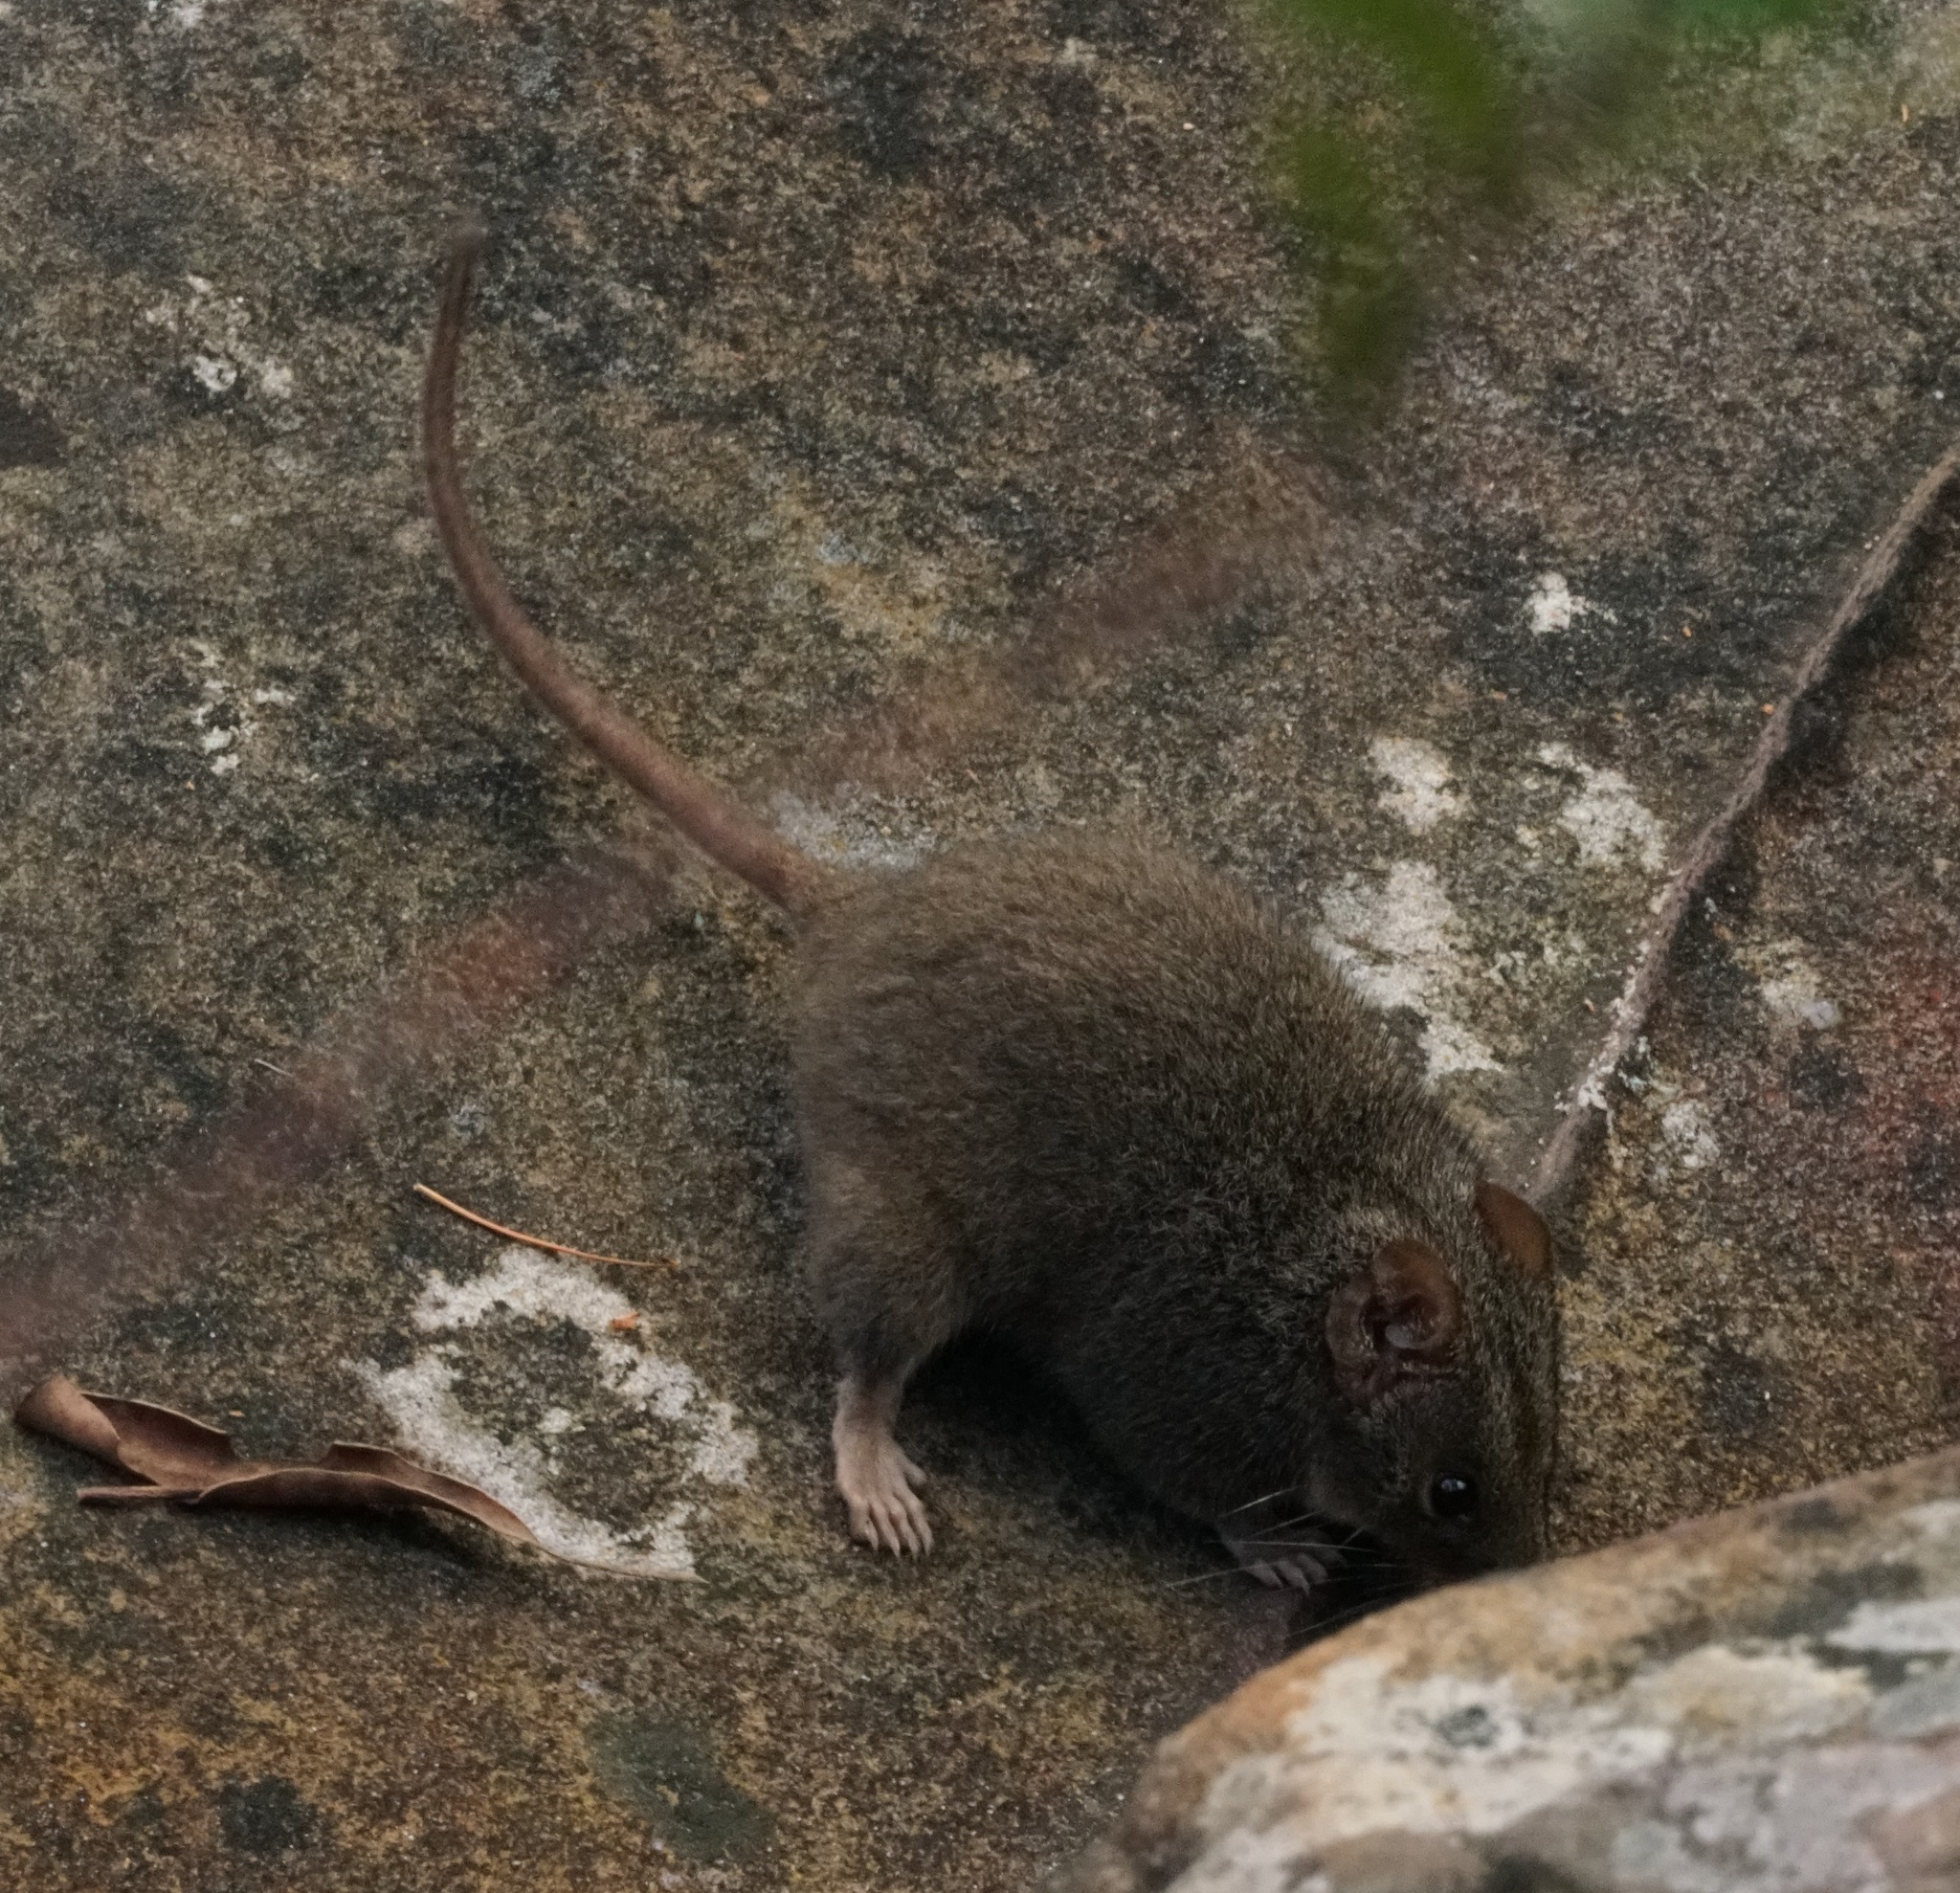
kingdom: Animalia
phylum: Chordata
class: Mammalia
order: Dasyuromorphia
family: Dasyuridae
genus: Antechinus
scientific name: Antechinus stuartii
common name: Brown antechinus
